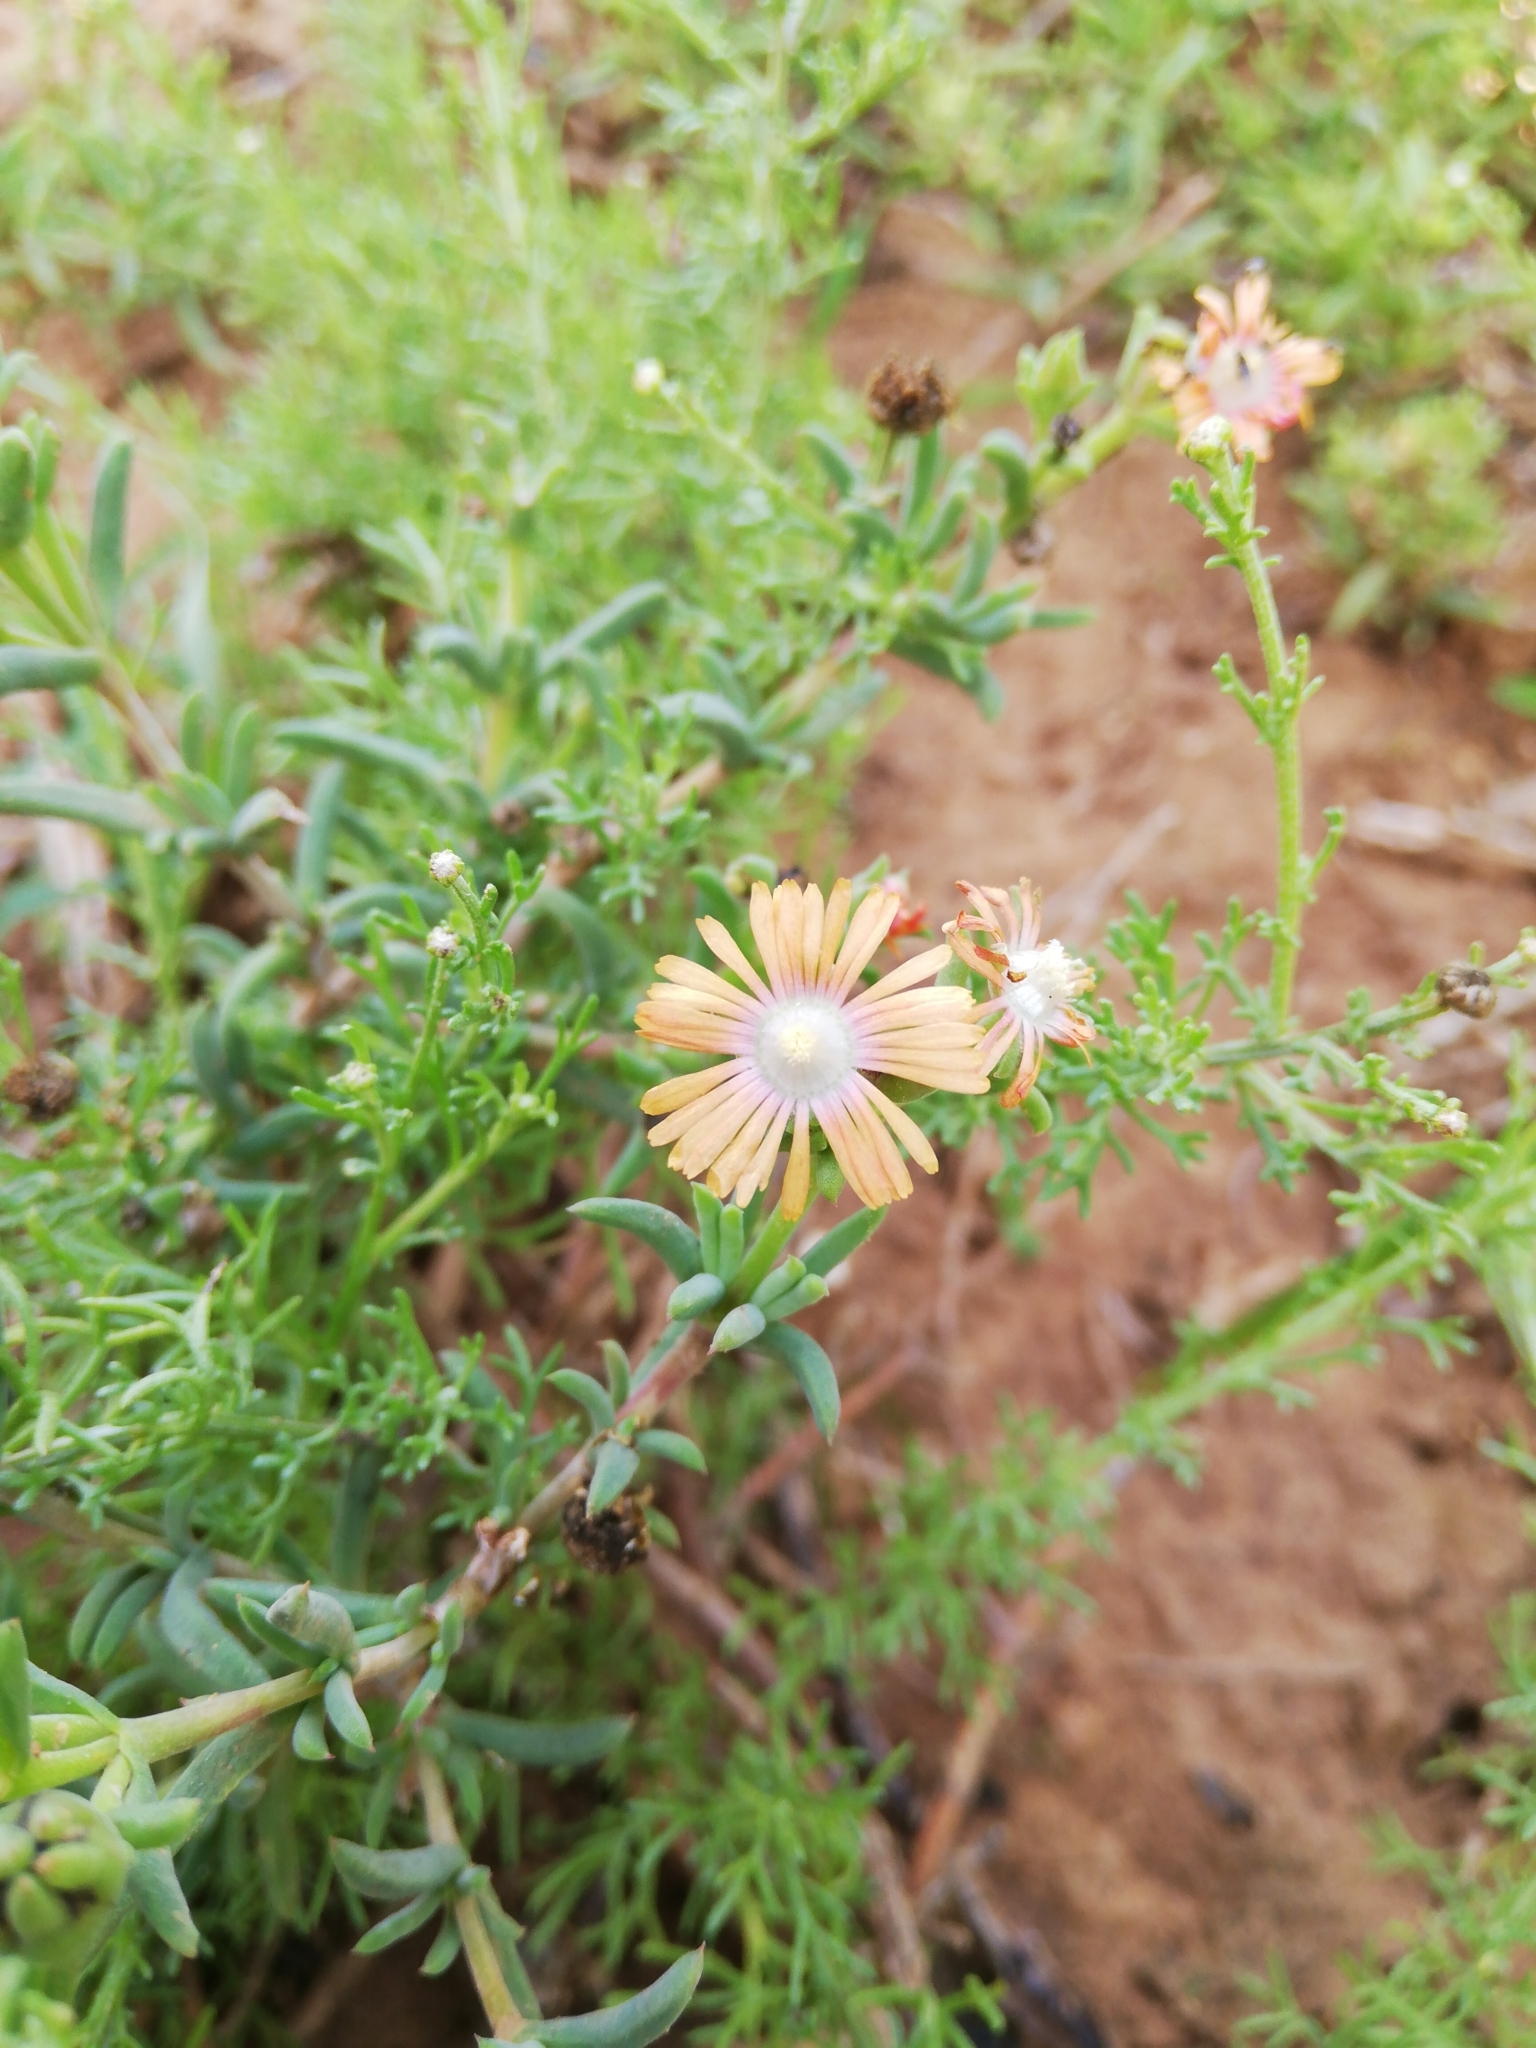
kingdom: Plantae
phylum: Tracheophyta
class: Magnoliopsida
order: Caryophyllales
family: Aizoaceae
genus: Delosperma
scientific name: Delosperma fredericii
